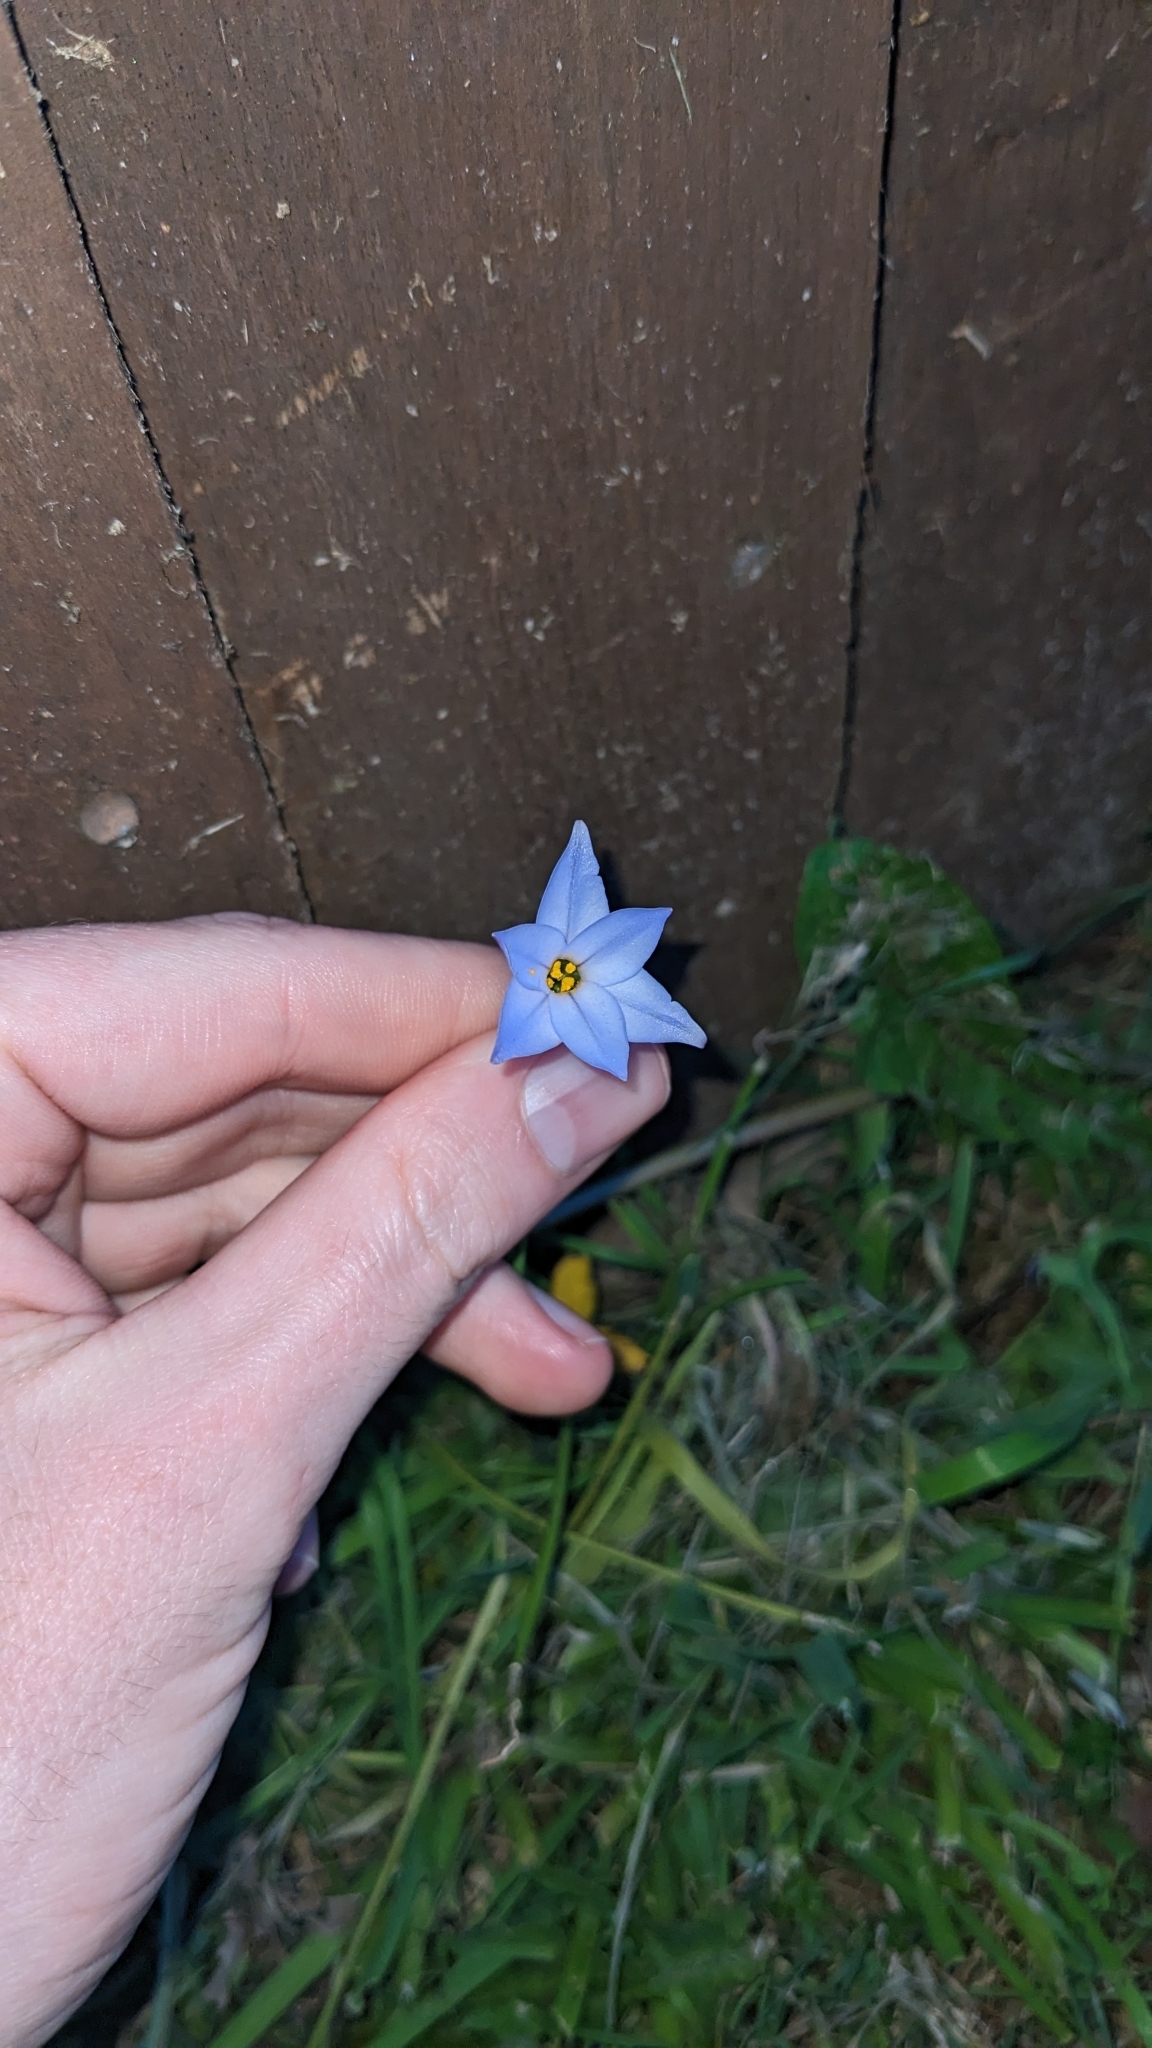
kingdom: Plantae
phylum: Tracheophyta
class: Liliopsida
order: Asparagales
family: Amaryllidaceae
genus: Ipheion
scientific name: Ipheion uniflorum
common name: Spring starflower
